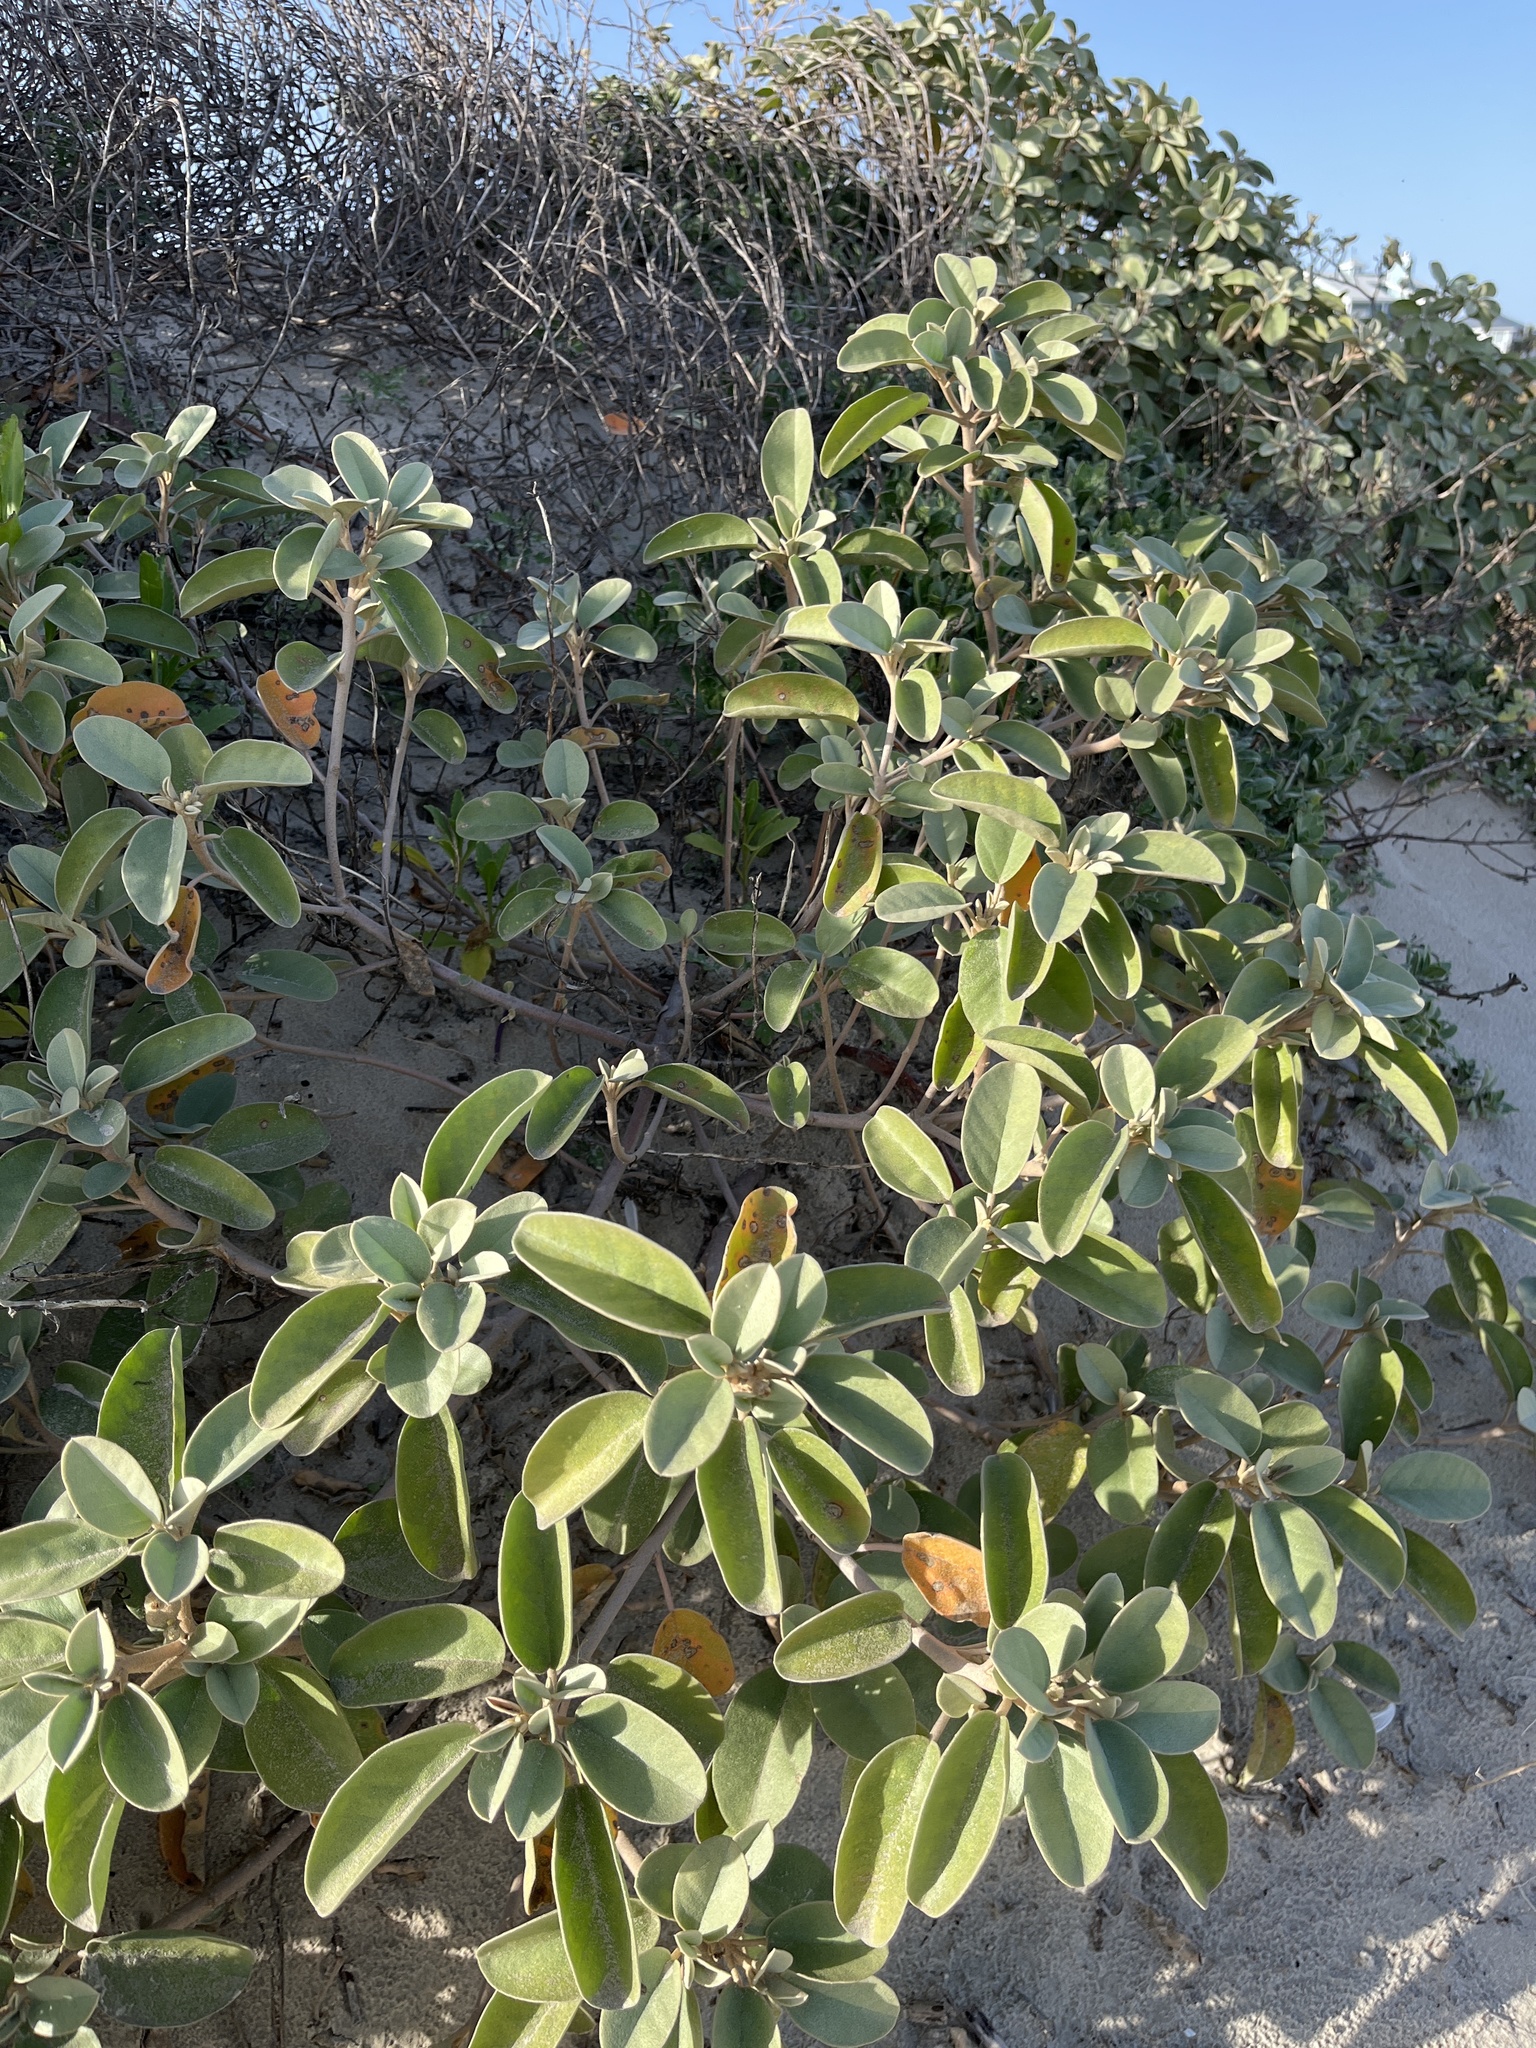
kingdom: Plantae
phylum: Tracheophyta
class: Magnoliopsida
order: Malpighiales
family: Euphorbiaceae
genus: Croton
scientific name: Croton punctatus
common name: Beach-tea
